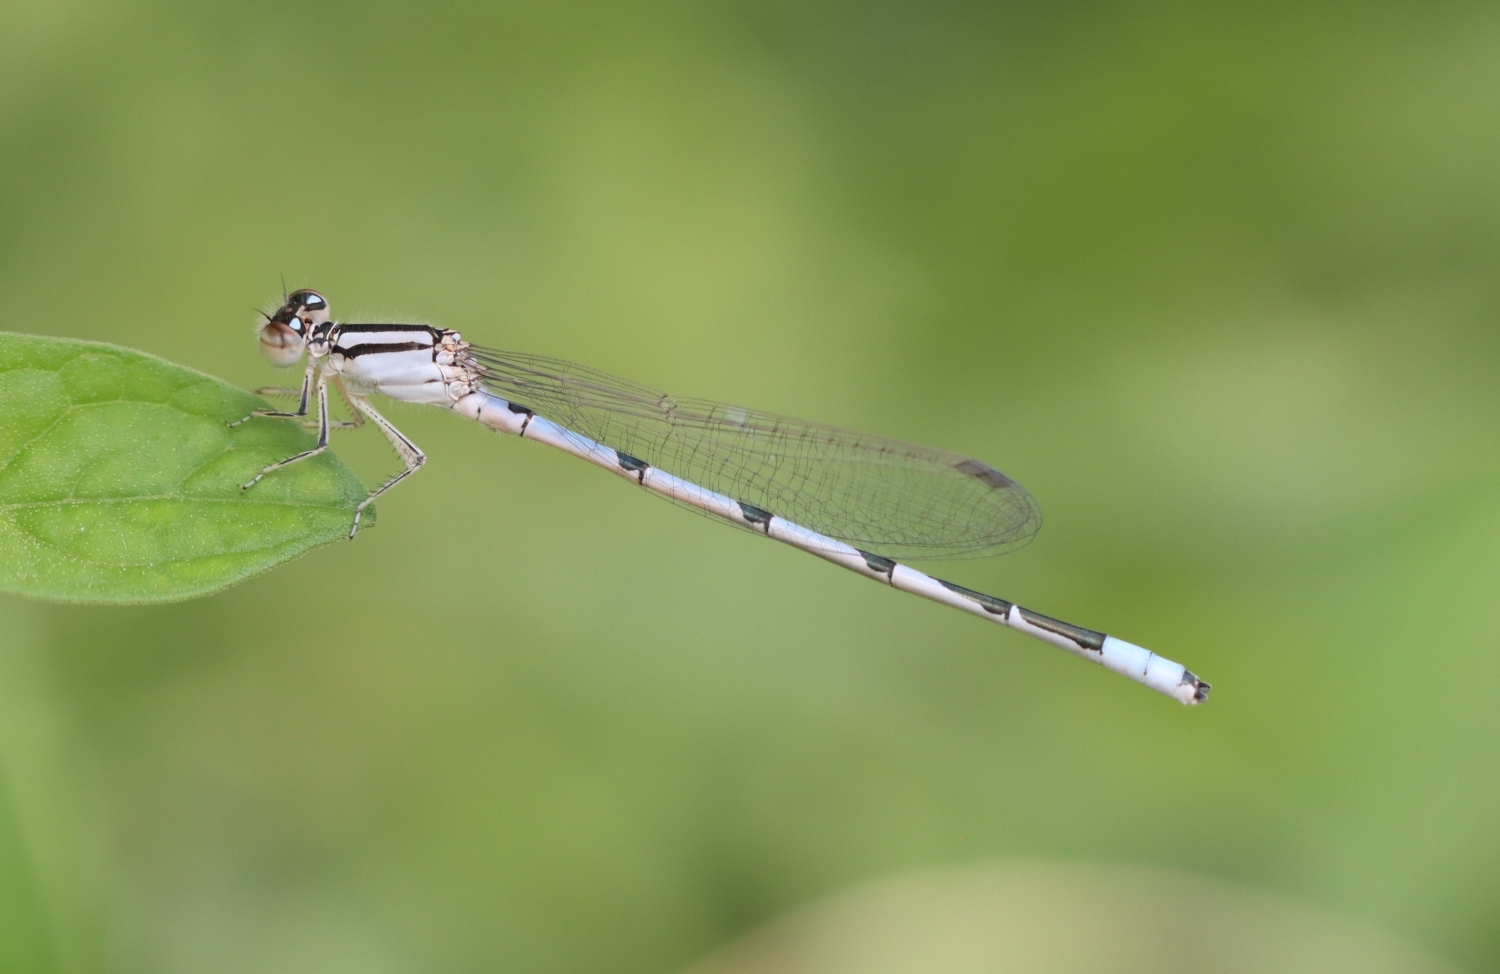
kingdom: Animalia
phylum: Arthropoda
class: Insecta
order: Odonata
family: Coenagrionidae
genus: Enallagma
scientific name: Enallagma civile
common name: Damselfly
